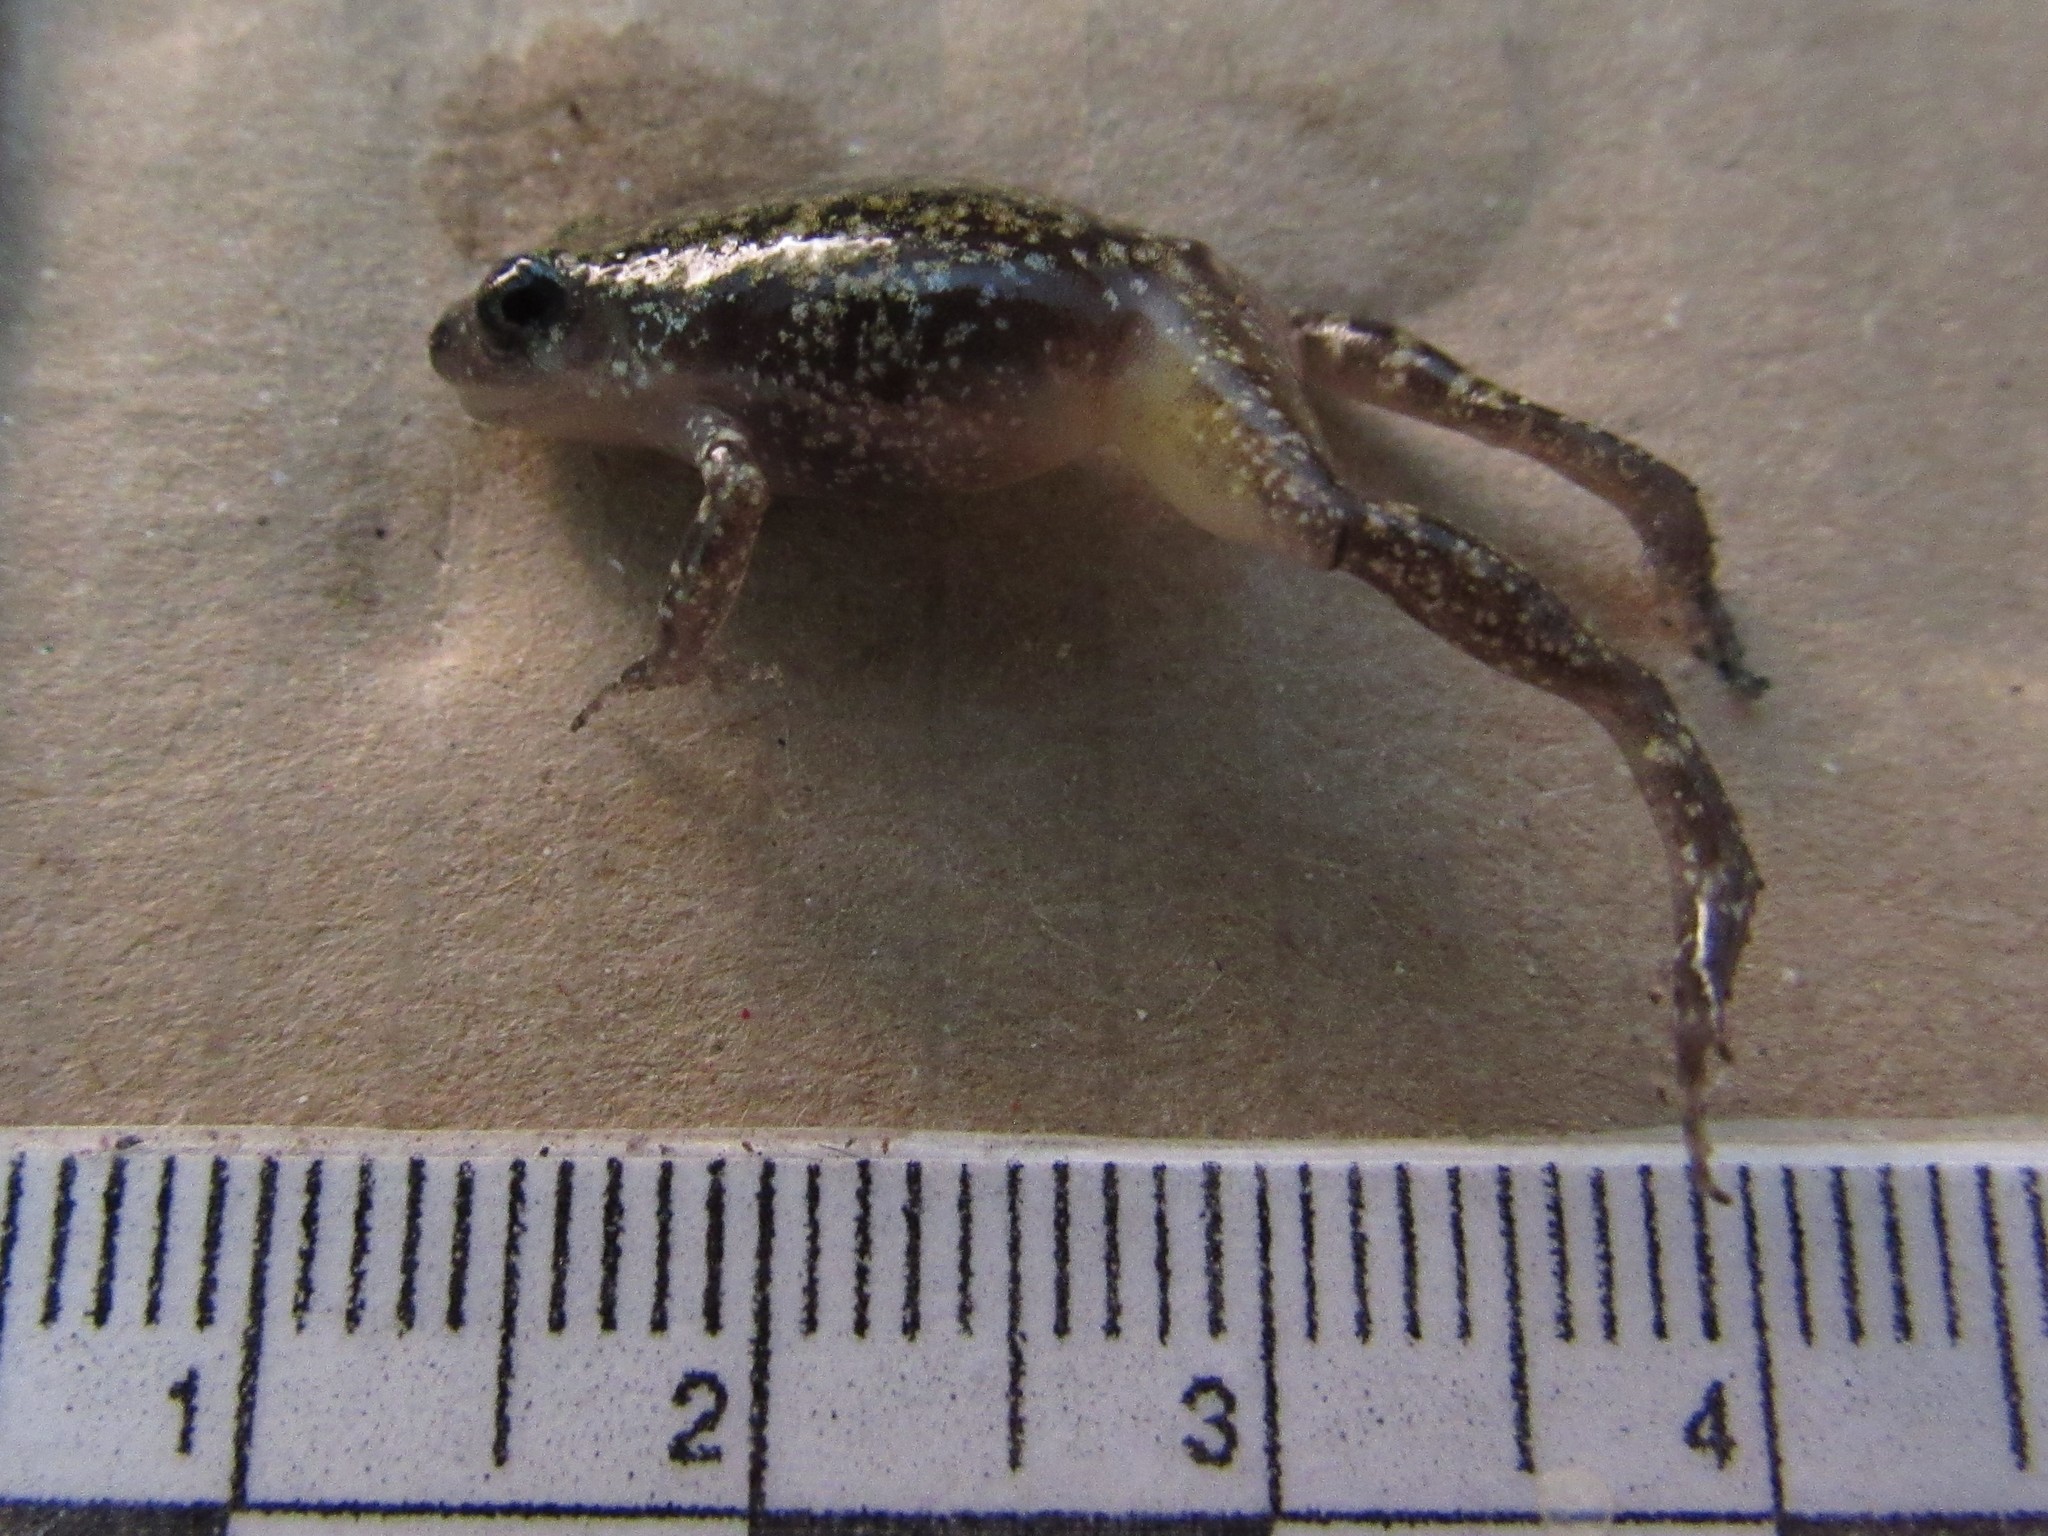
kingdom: Animalia
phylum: Chordata
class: Amphibia
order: Anura
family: Eleutherodactylidae
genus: Eleutherodactylus
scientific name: Eleutherodactylus guttilatus
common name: Spotted chirping frog
